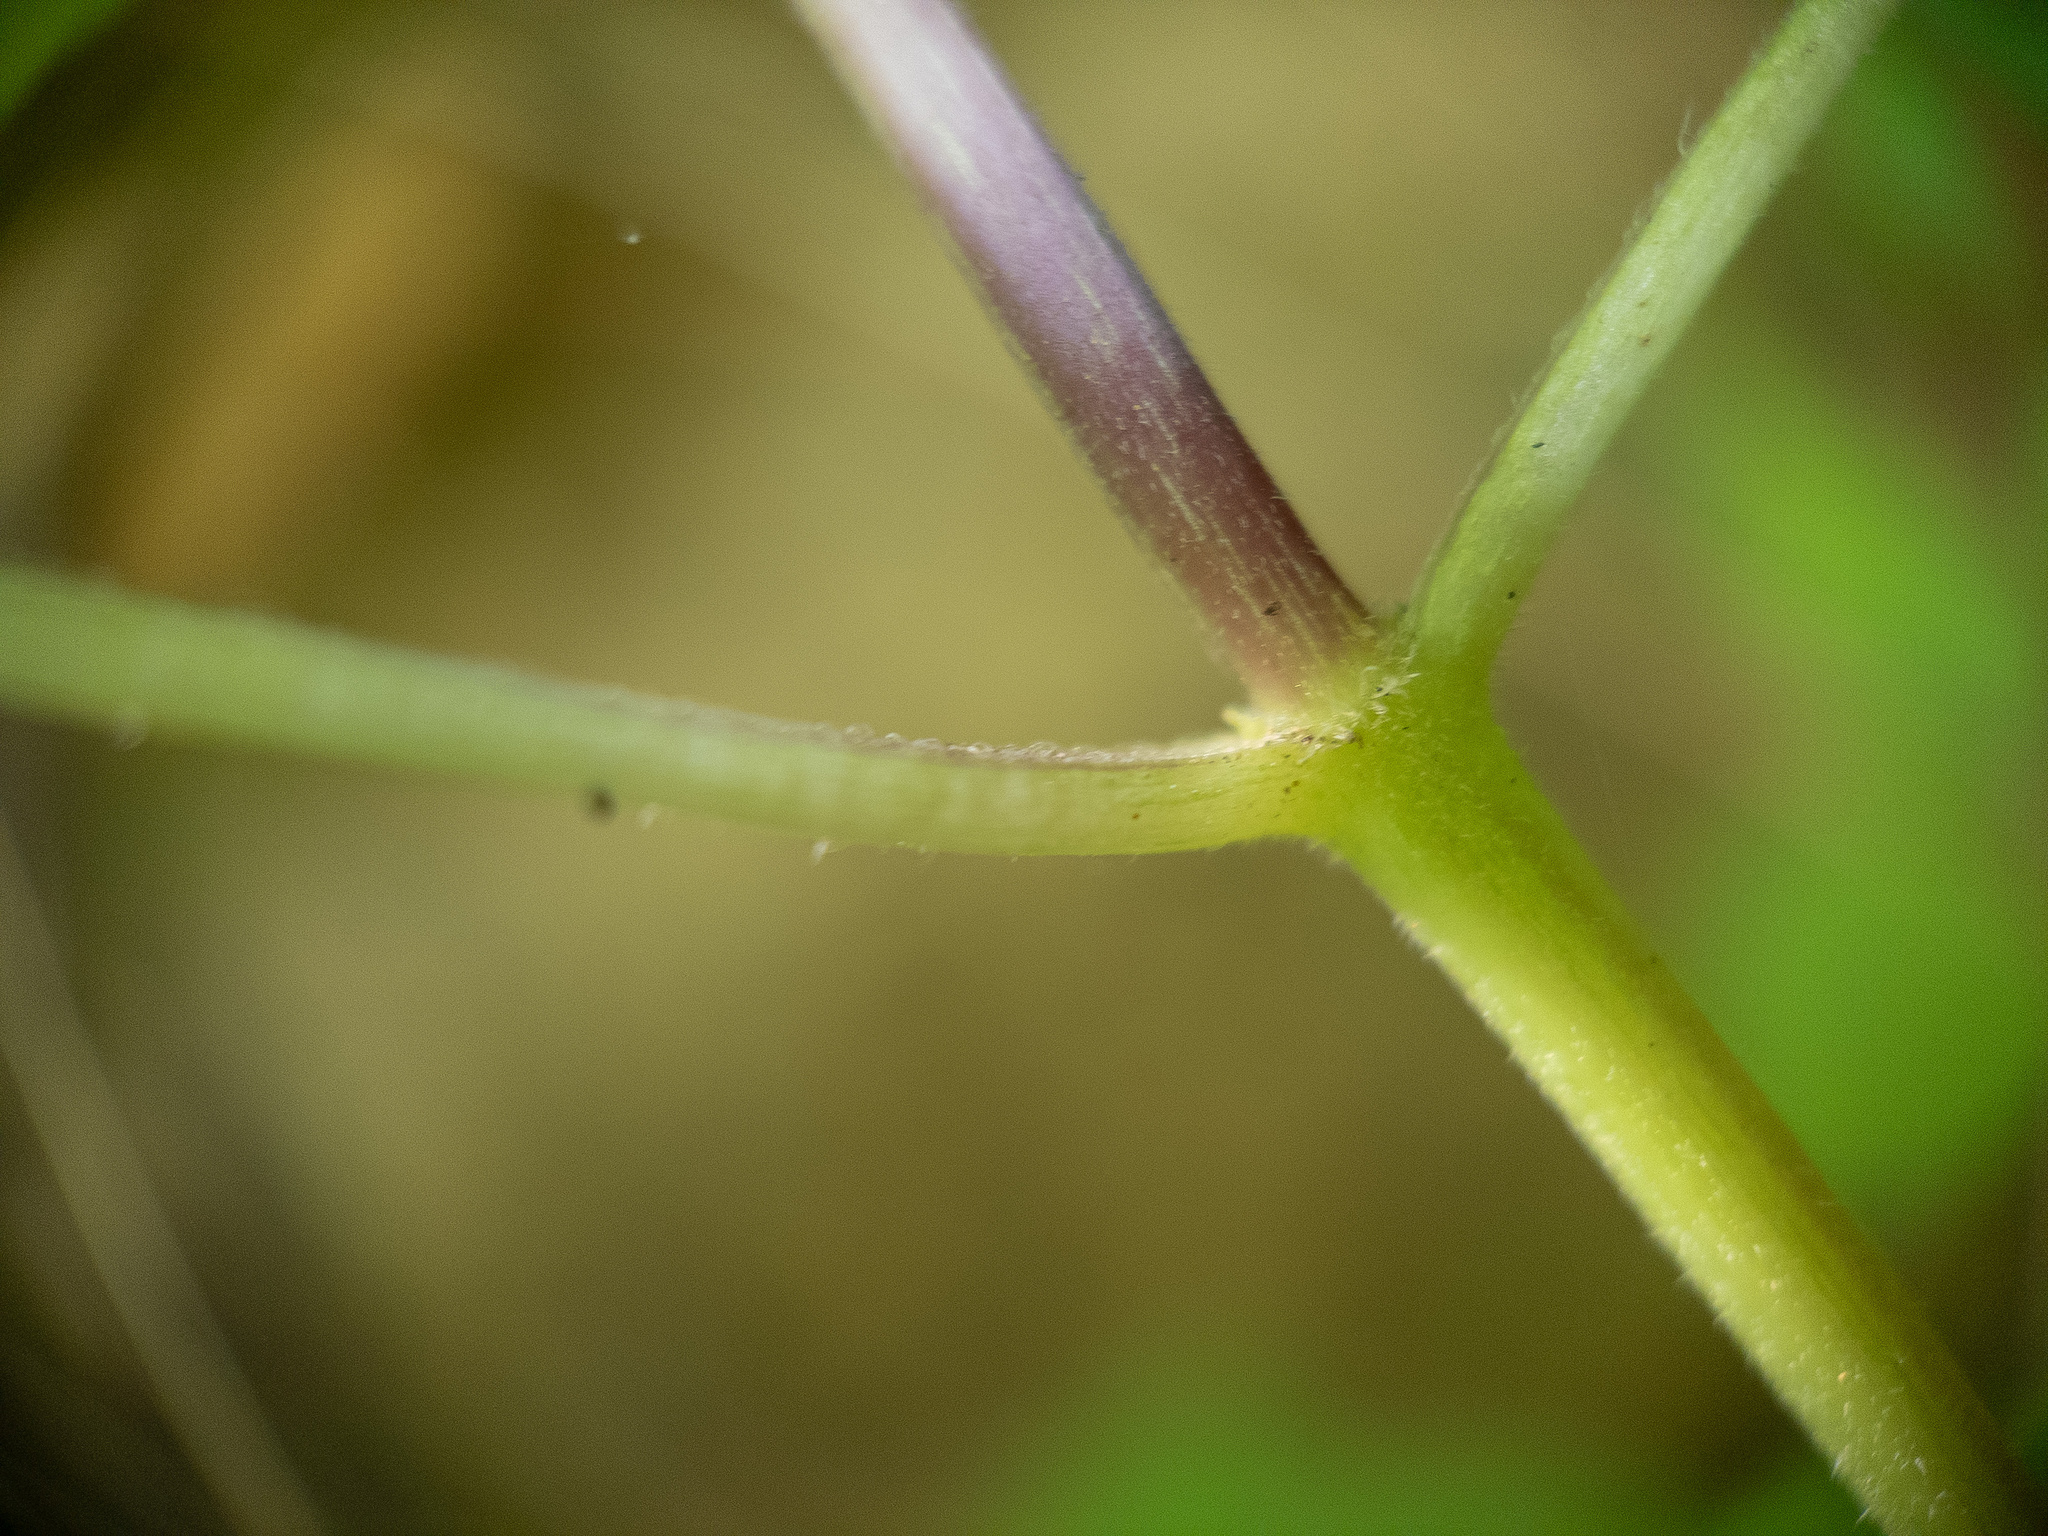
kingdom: Plantae
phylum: Tracheophyta
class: Magnoliopsida
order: Lamiales
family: Phrymaceae
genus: Phryma
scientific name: Phryma leptostachya
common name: American lopseed
